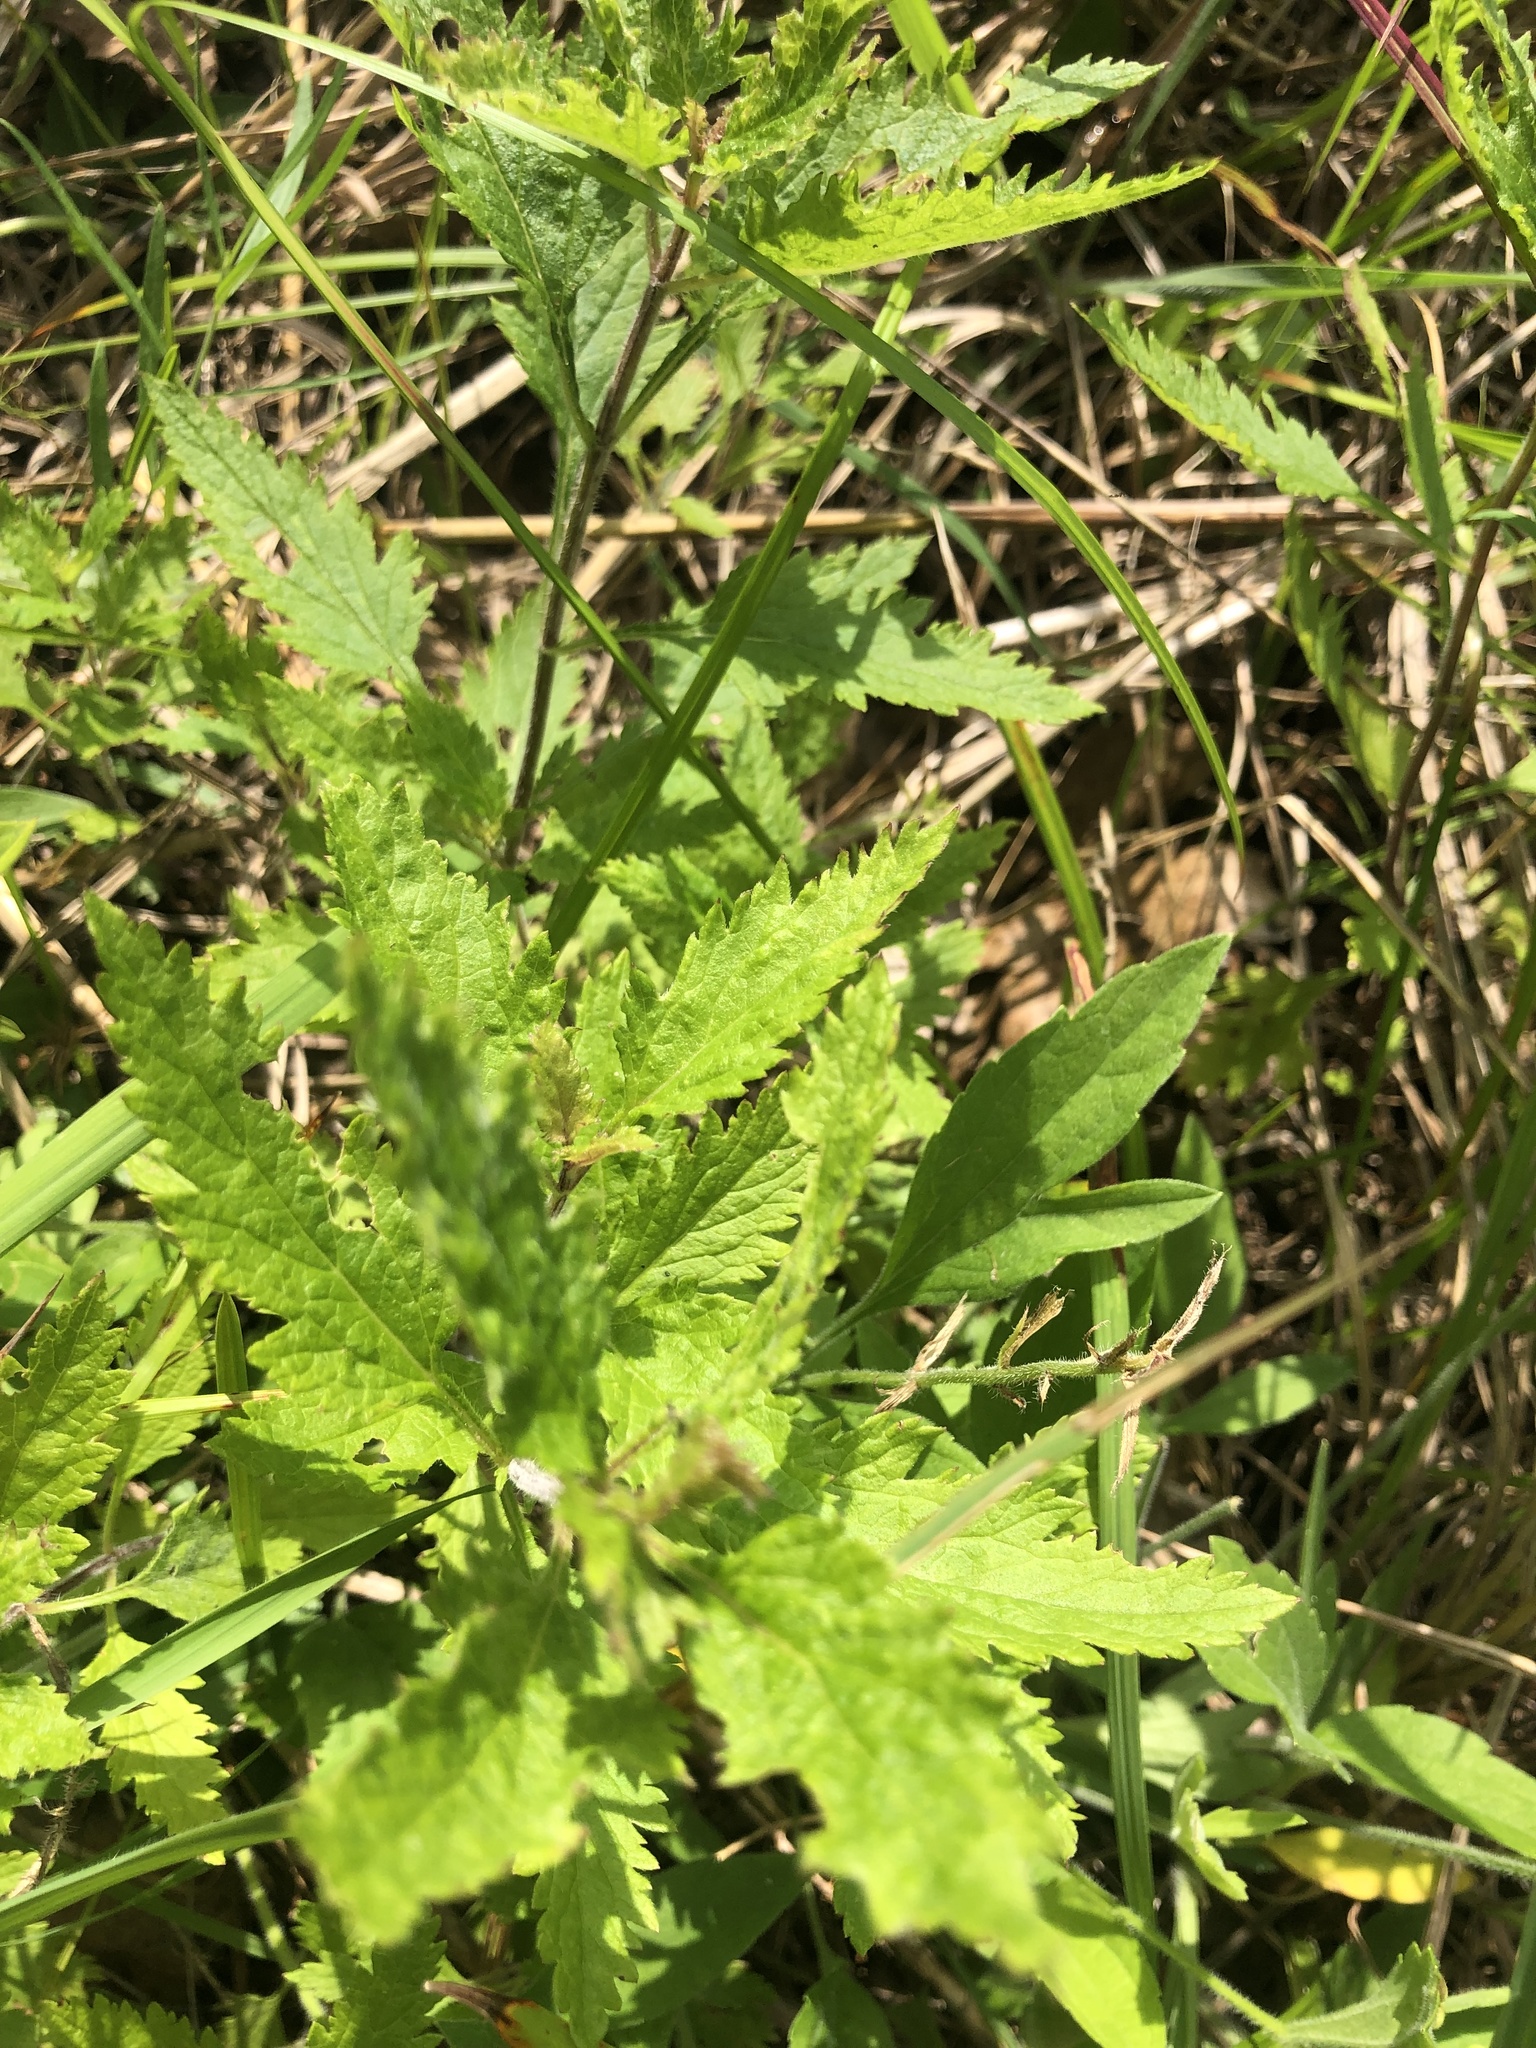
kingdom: Plantae
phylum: Tracheophyta
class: Magnoliopsida
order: Lamiales
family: Verbenaceae
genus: Verbena
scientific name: Verbena canadensis
